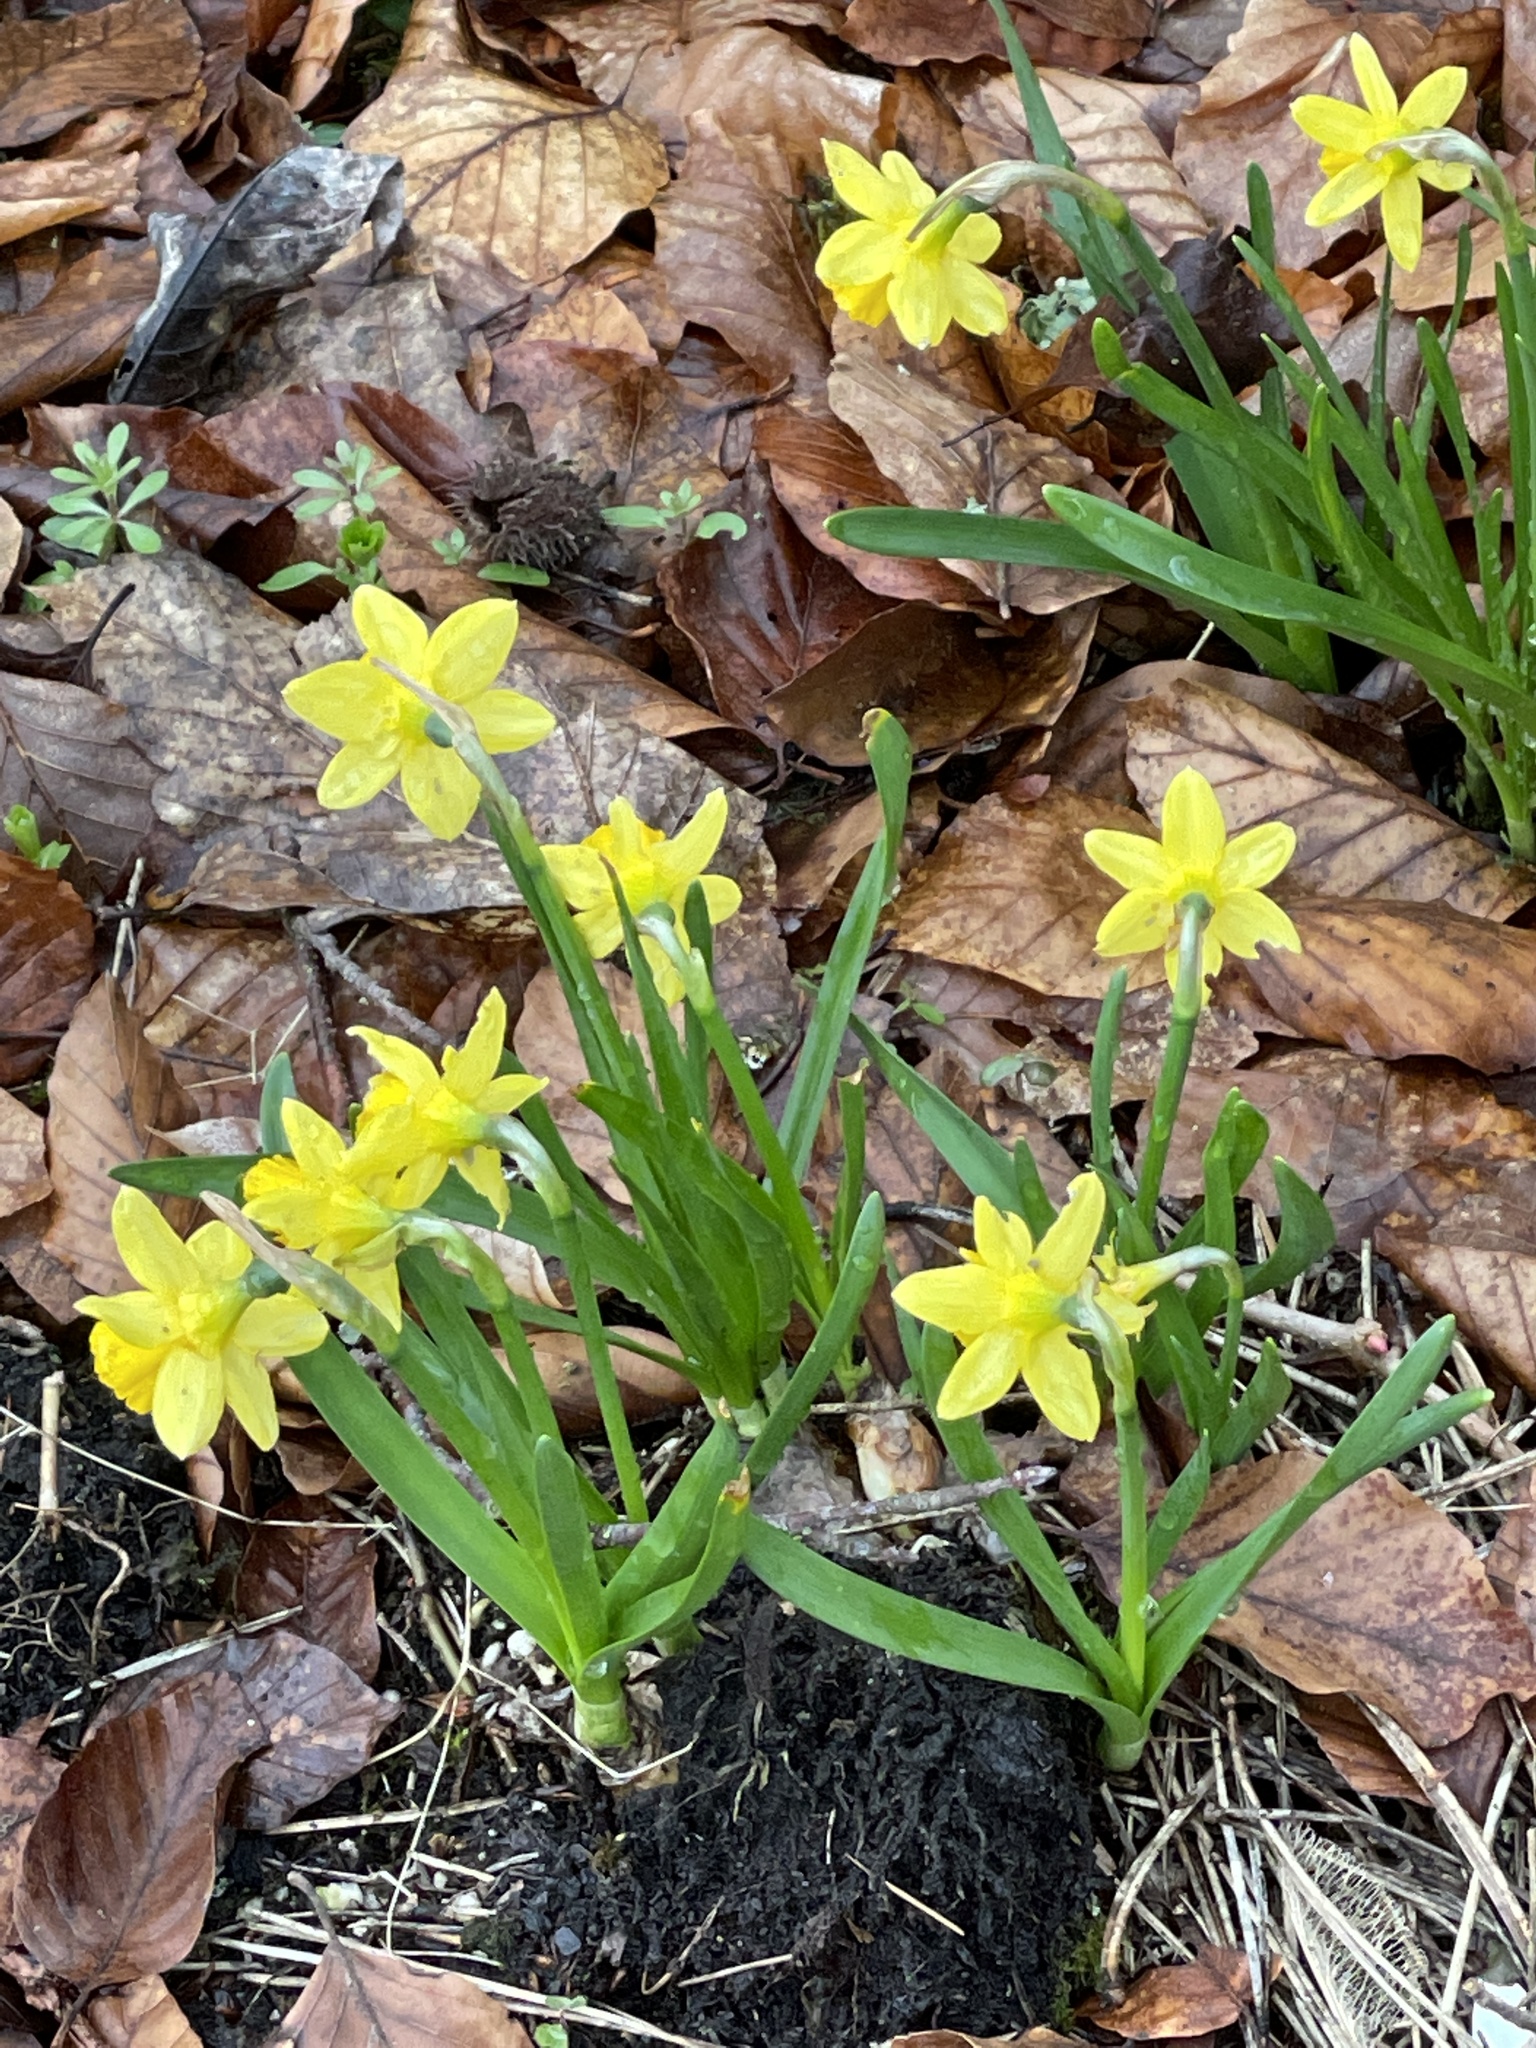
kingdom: Plantae
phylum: Tracheophyta
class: Liliopsida
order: Asparagales
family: Amaryllidaceae
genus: Narcissus
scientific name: Narcissus pseudonarcissus
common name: Daffodil
